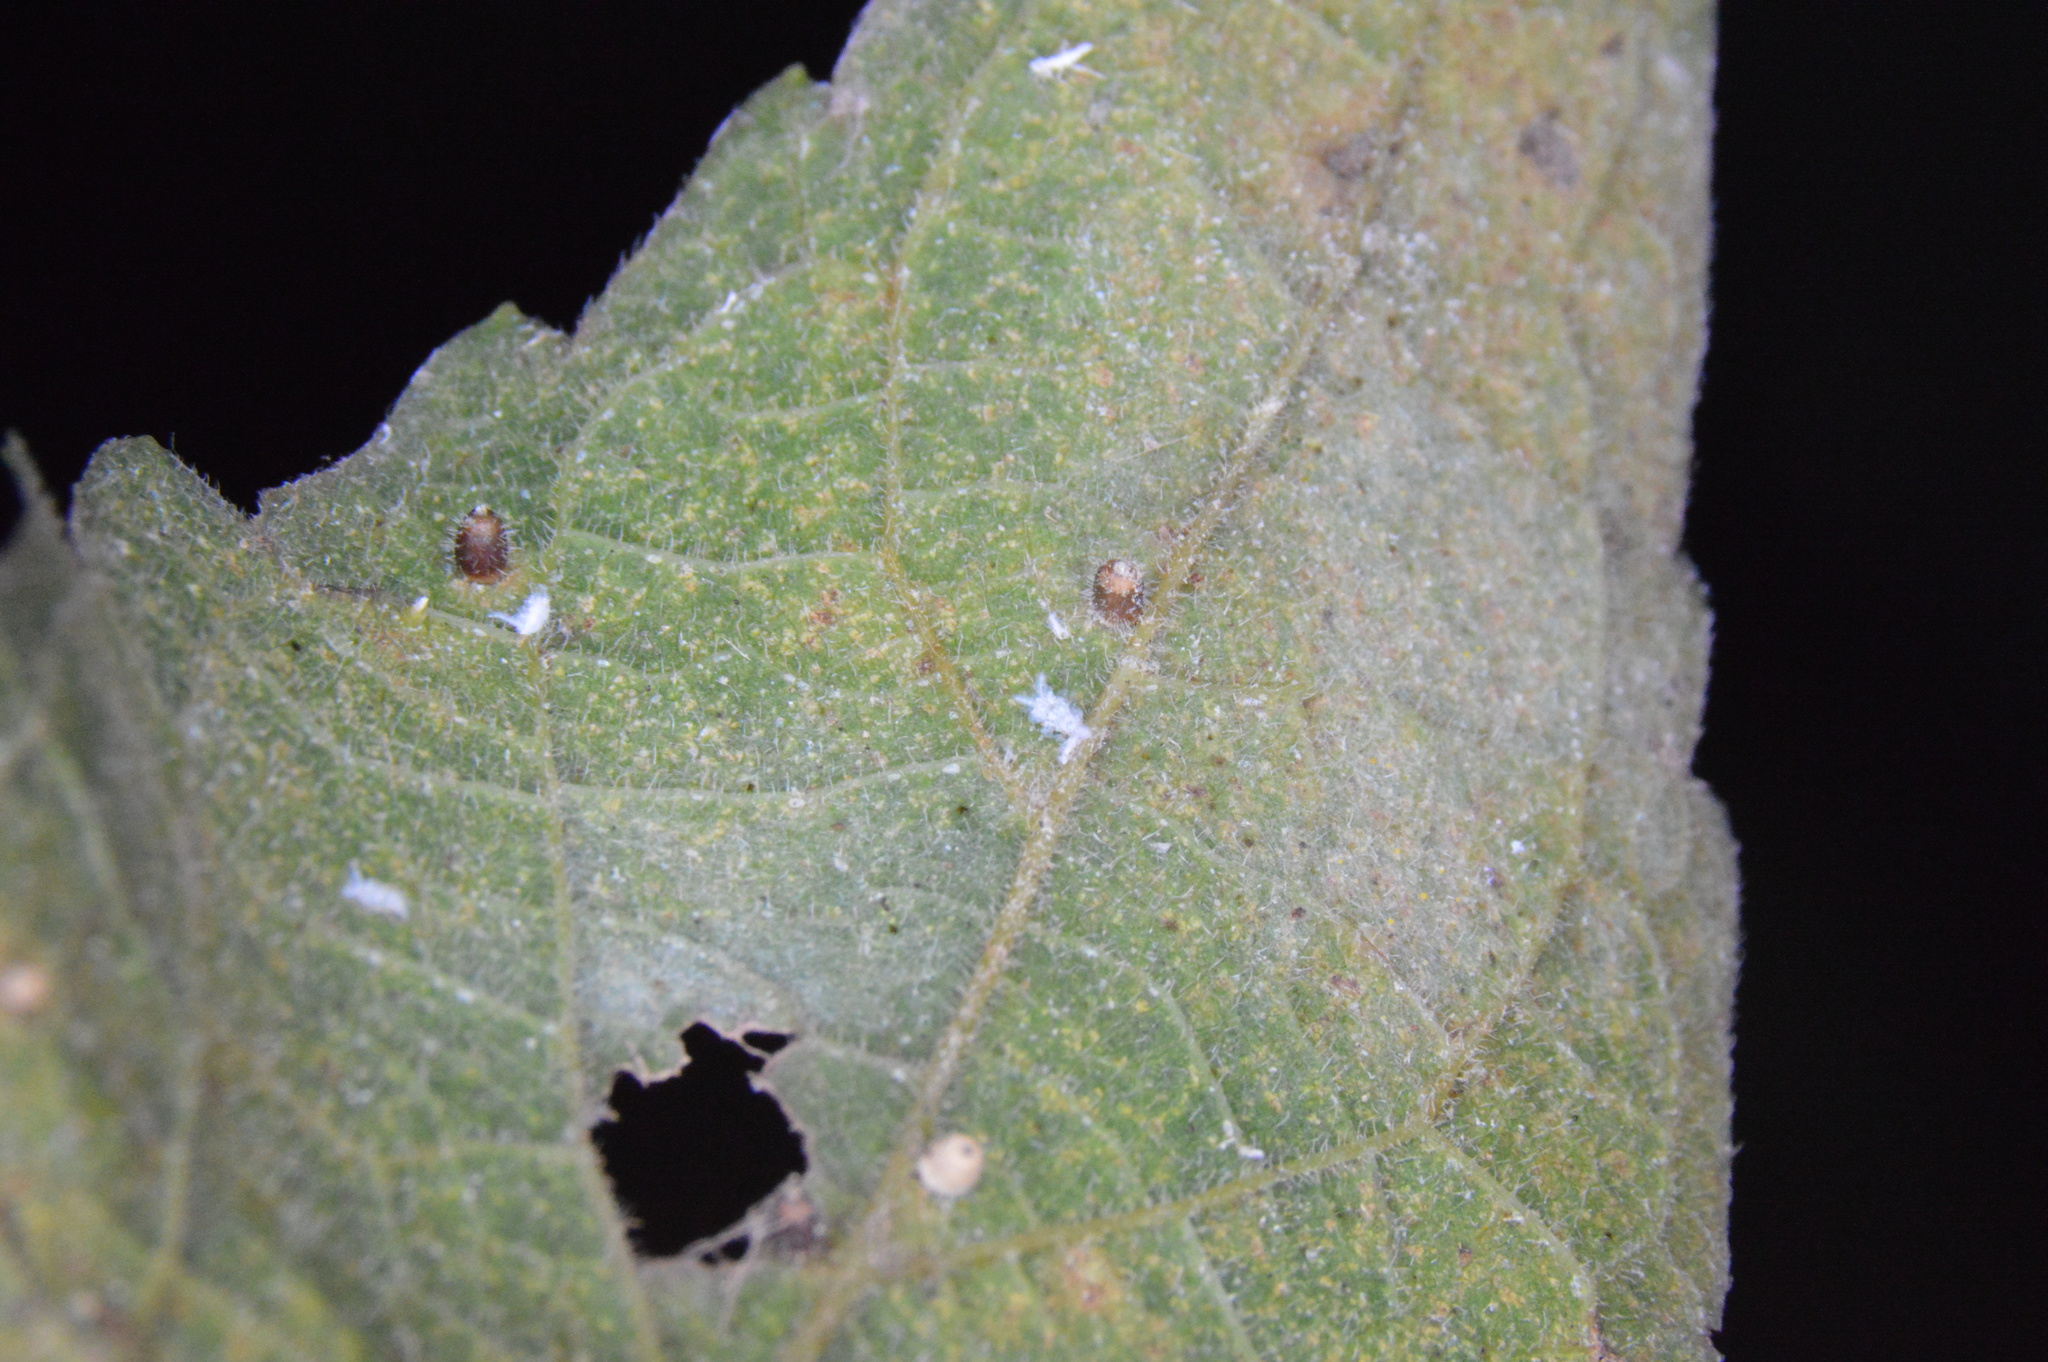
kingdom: Animalia
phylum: Arthropoda
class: Insecta
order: Diptera
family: Cecidomyiidae
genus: Celticecis
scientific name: Celticecis cupiformis
